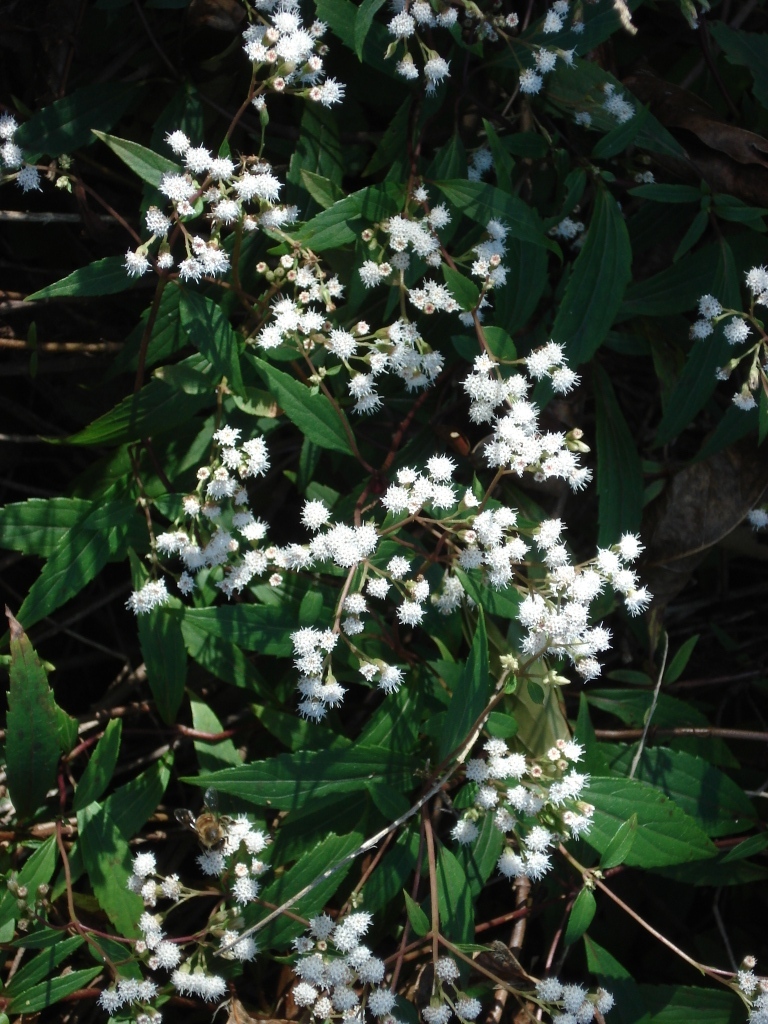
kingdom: Plantae
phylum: Tracheophyta
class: Magnoliopsida
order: Asterales
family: Asteraceae
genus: Ageratina
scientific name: Ageratina riparia
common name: Creeping croftonweed
